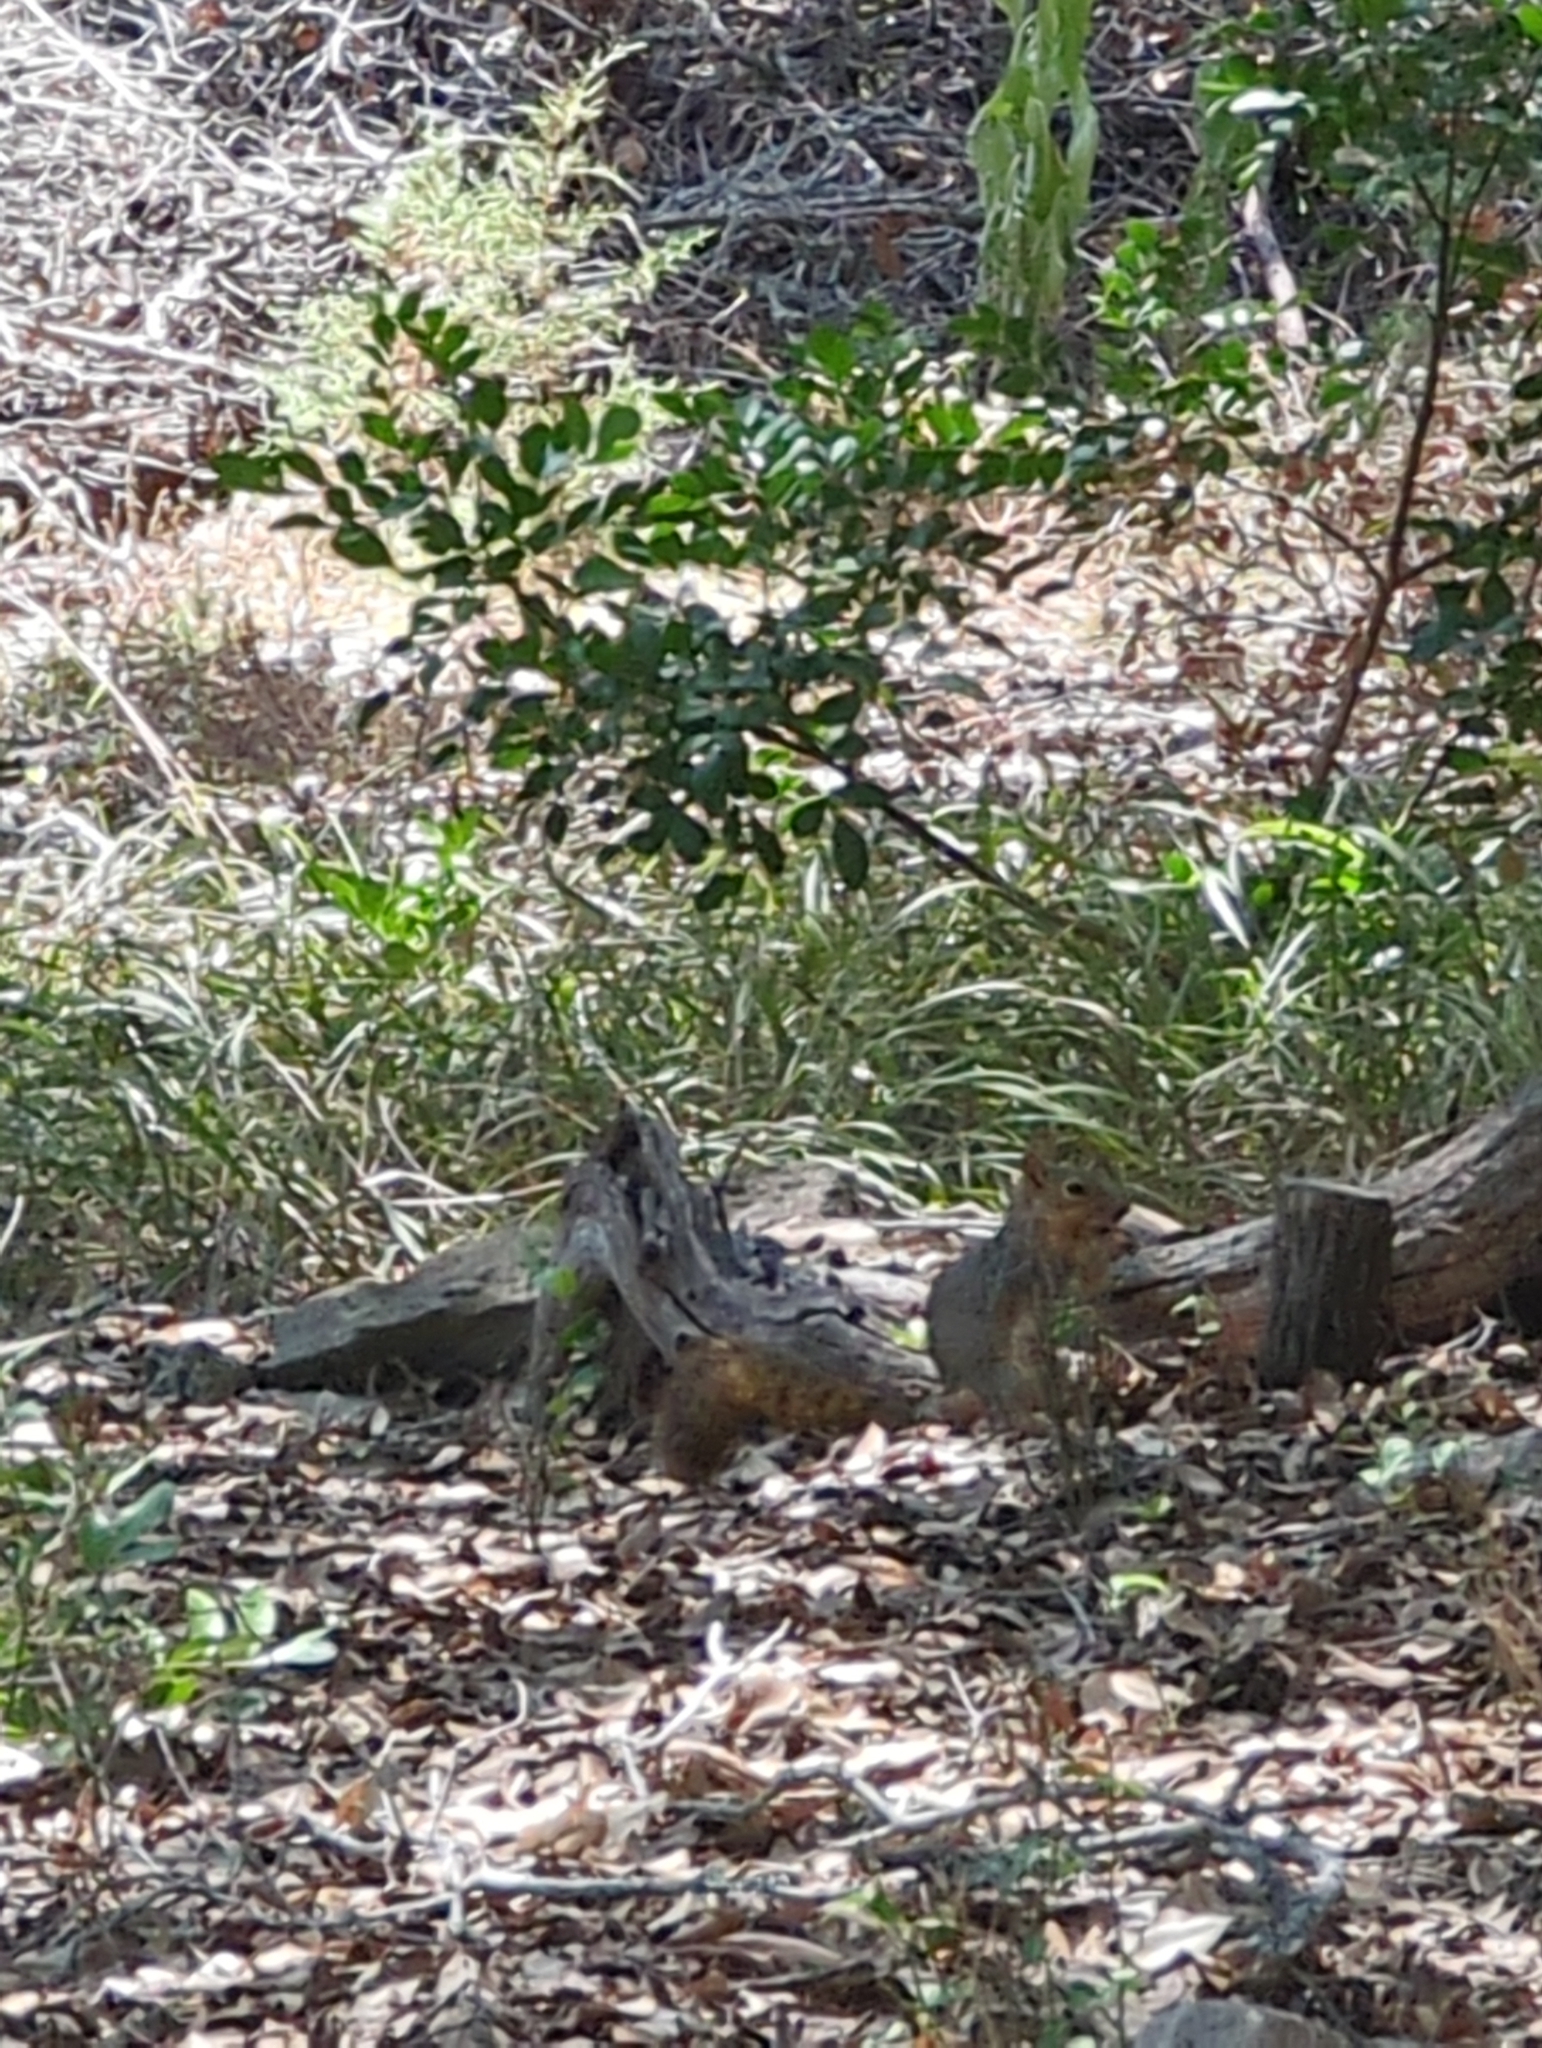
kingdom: Animalia
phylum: Chordata
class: Mammalia
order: Rodentia
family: Sciuridae
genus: Sciurus
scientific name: Sciurus niger
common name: Fox squirrel
